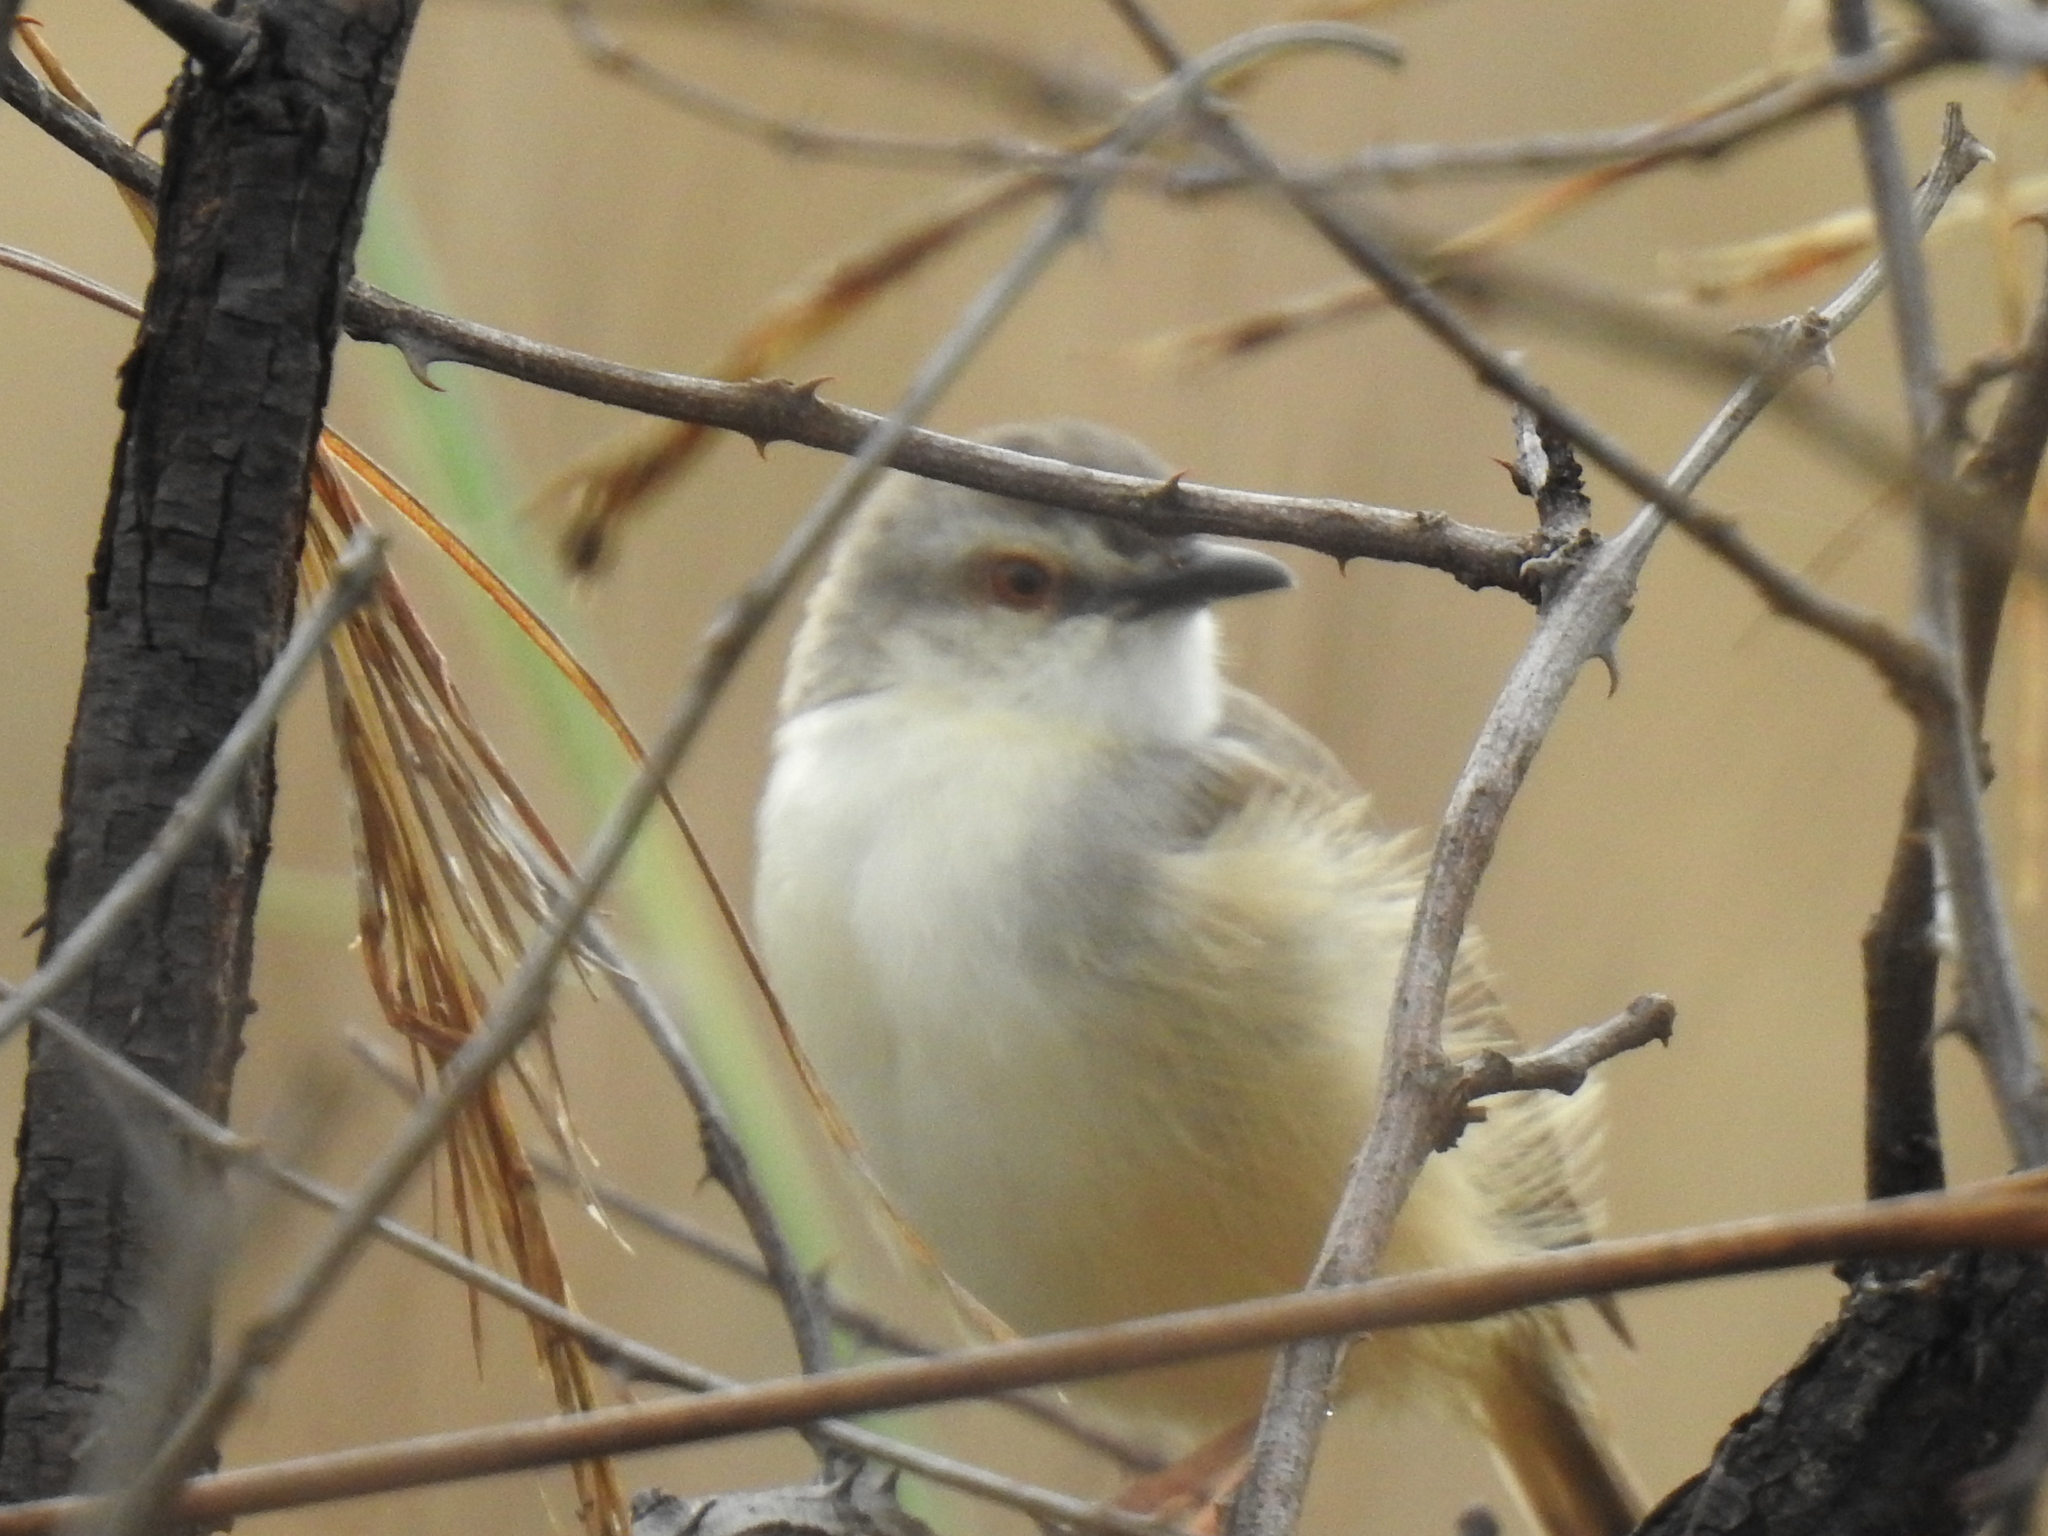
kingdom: Animalia
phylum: Chordata
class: Aves
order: Passeriformes
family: Cisticolidae
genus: Prinia
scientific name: Prinia subflava
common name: Tawny-flanked prinia
